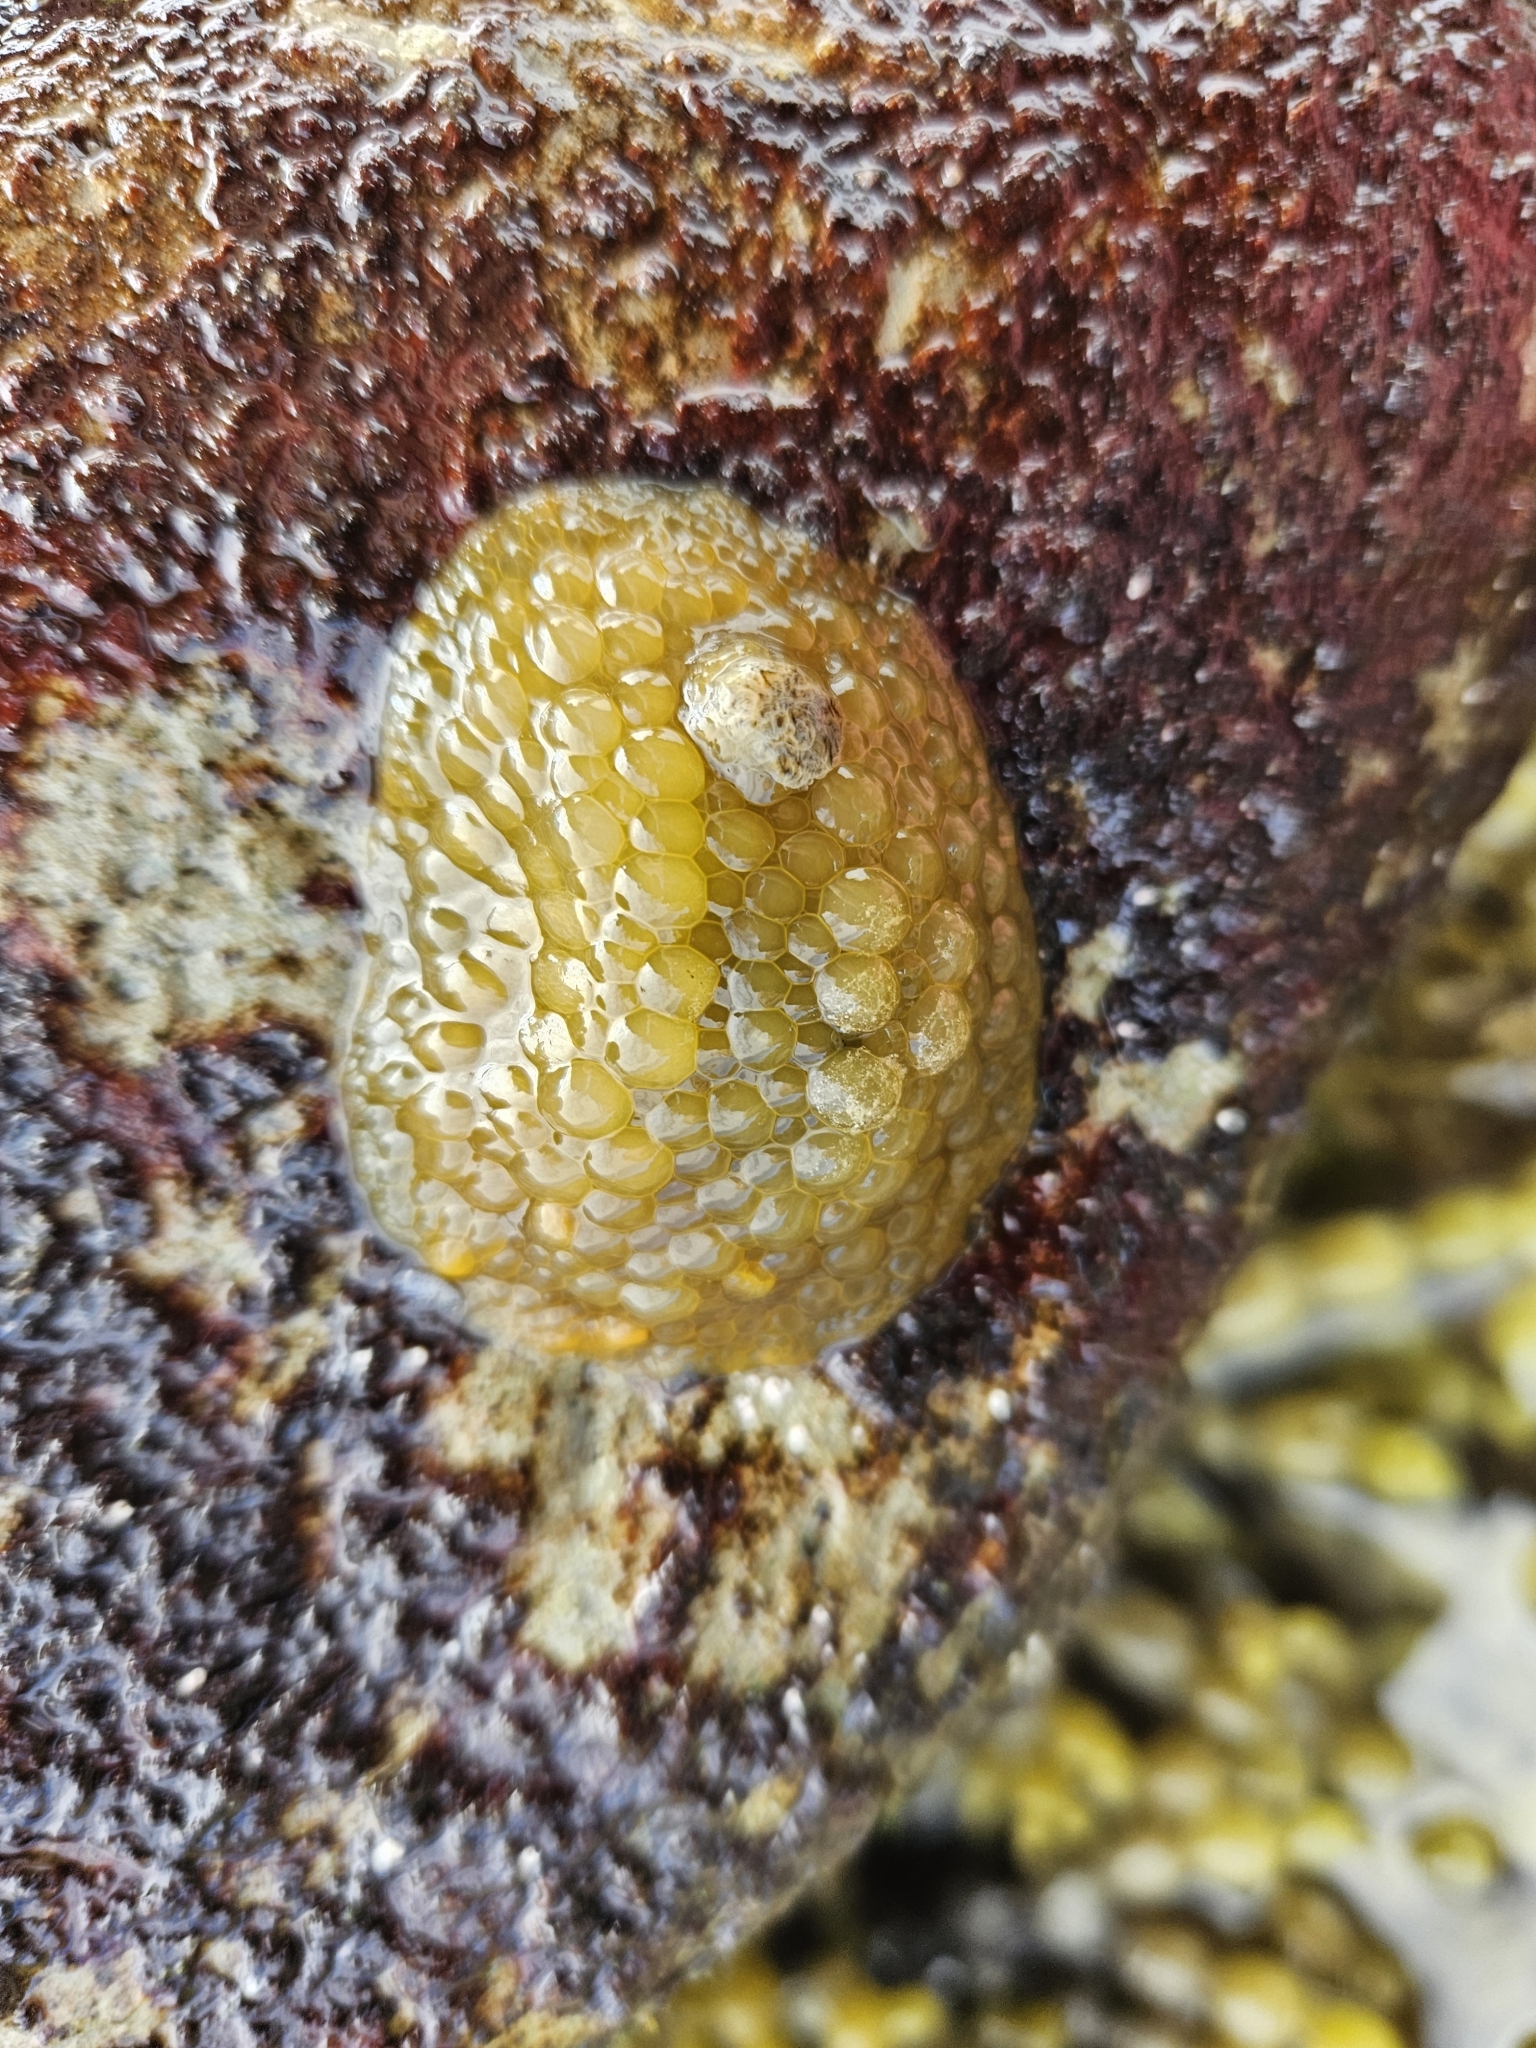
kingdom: Animalia
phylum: Mollusca
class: Gastropoda
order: Nudibranchia
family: Dorididae
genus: Doris
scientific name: Doris wellingtonensis
